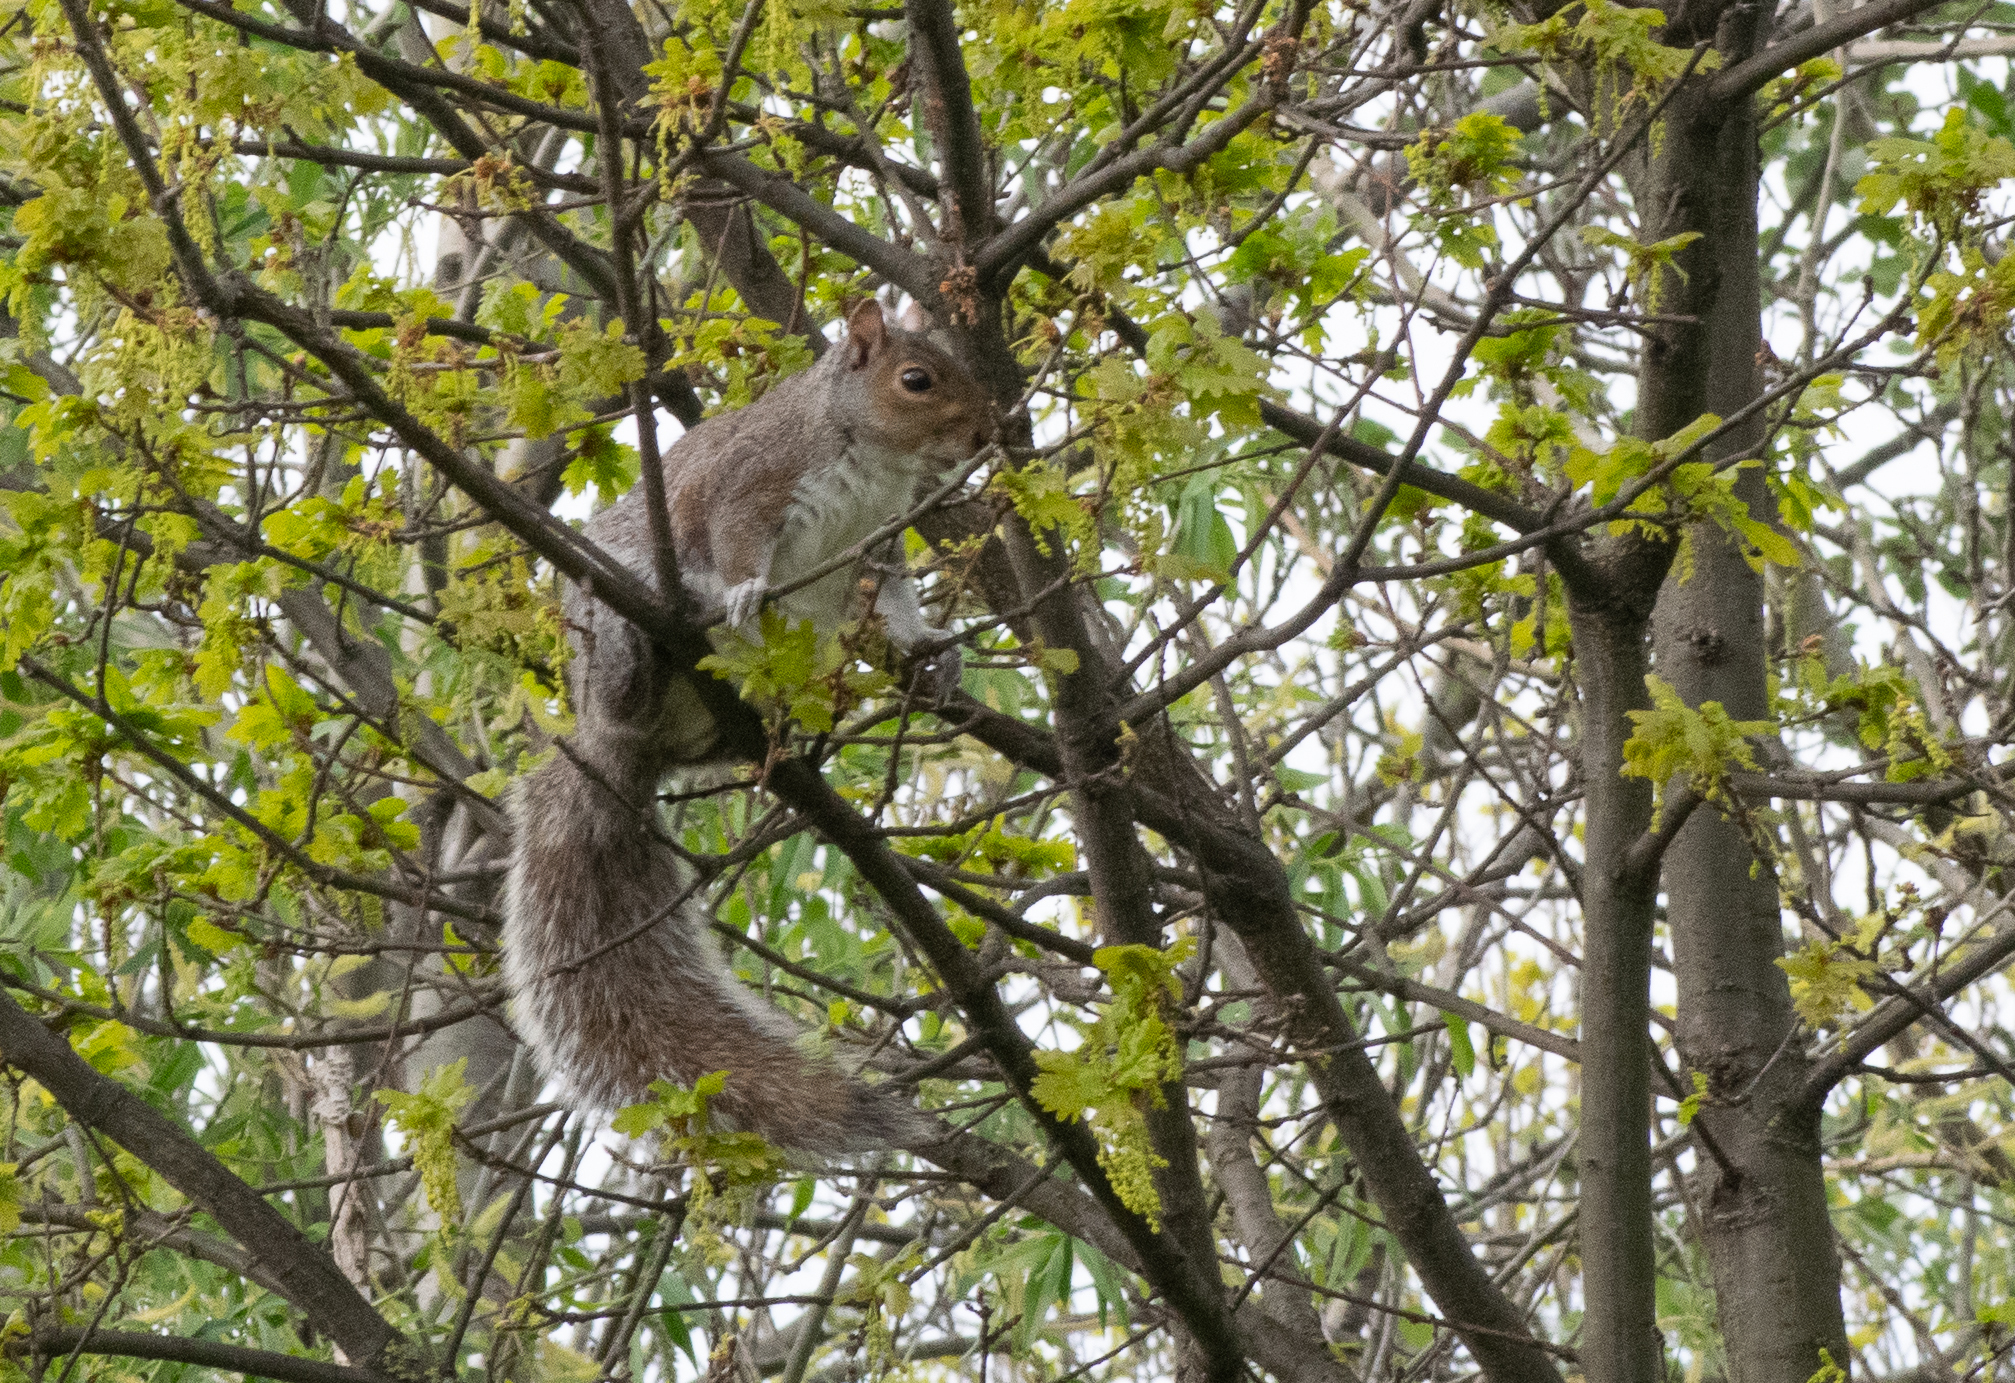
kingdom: Animalia
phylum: Chordata
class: Mammalia
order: Rodentia
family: Sciuridae
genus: Sciurus
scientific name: Sciurus carolinensis
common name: Eastern gray squirrel
